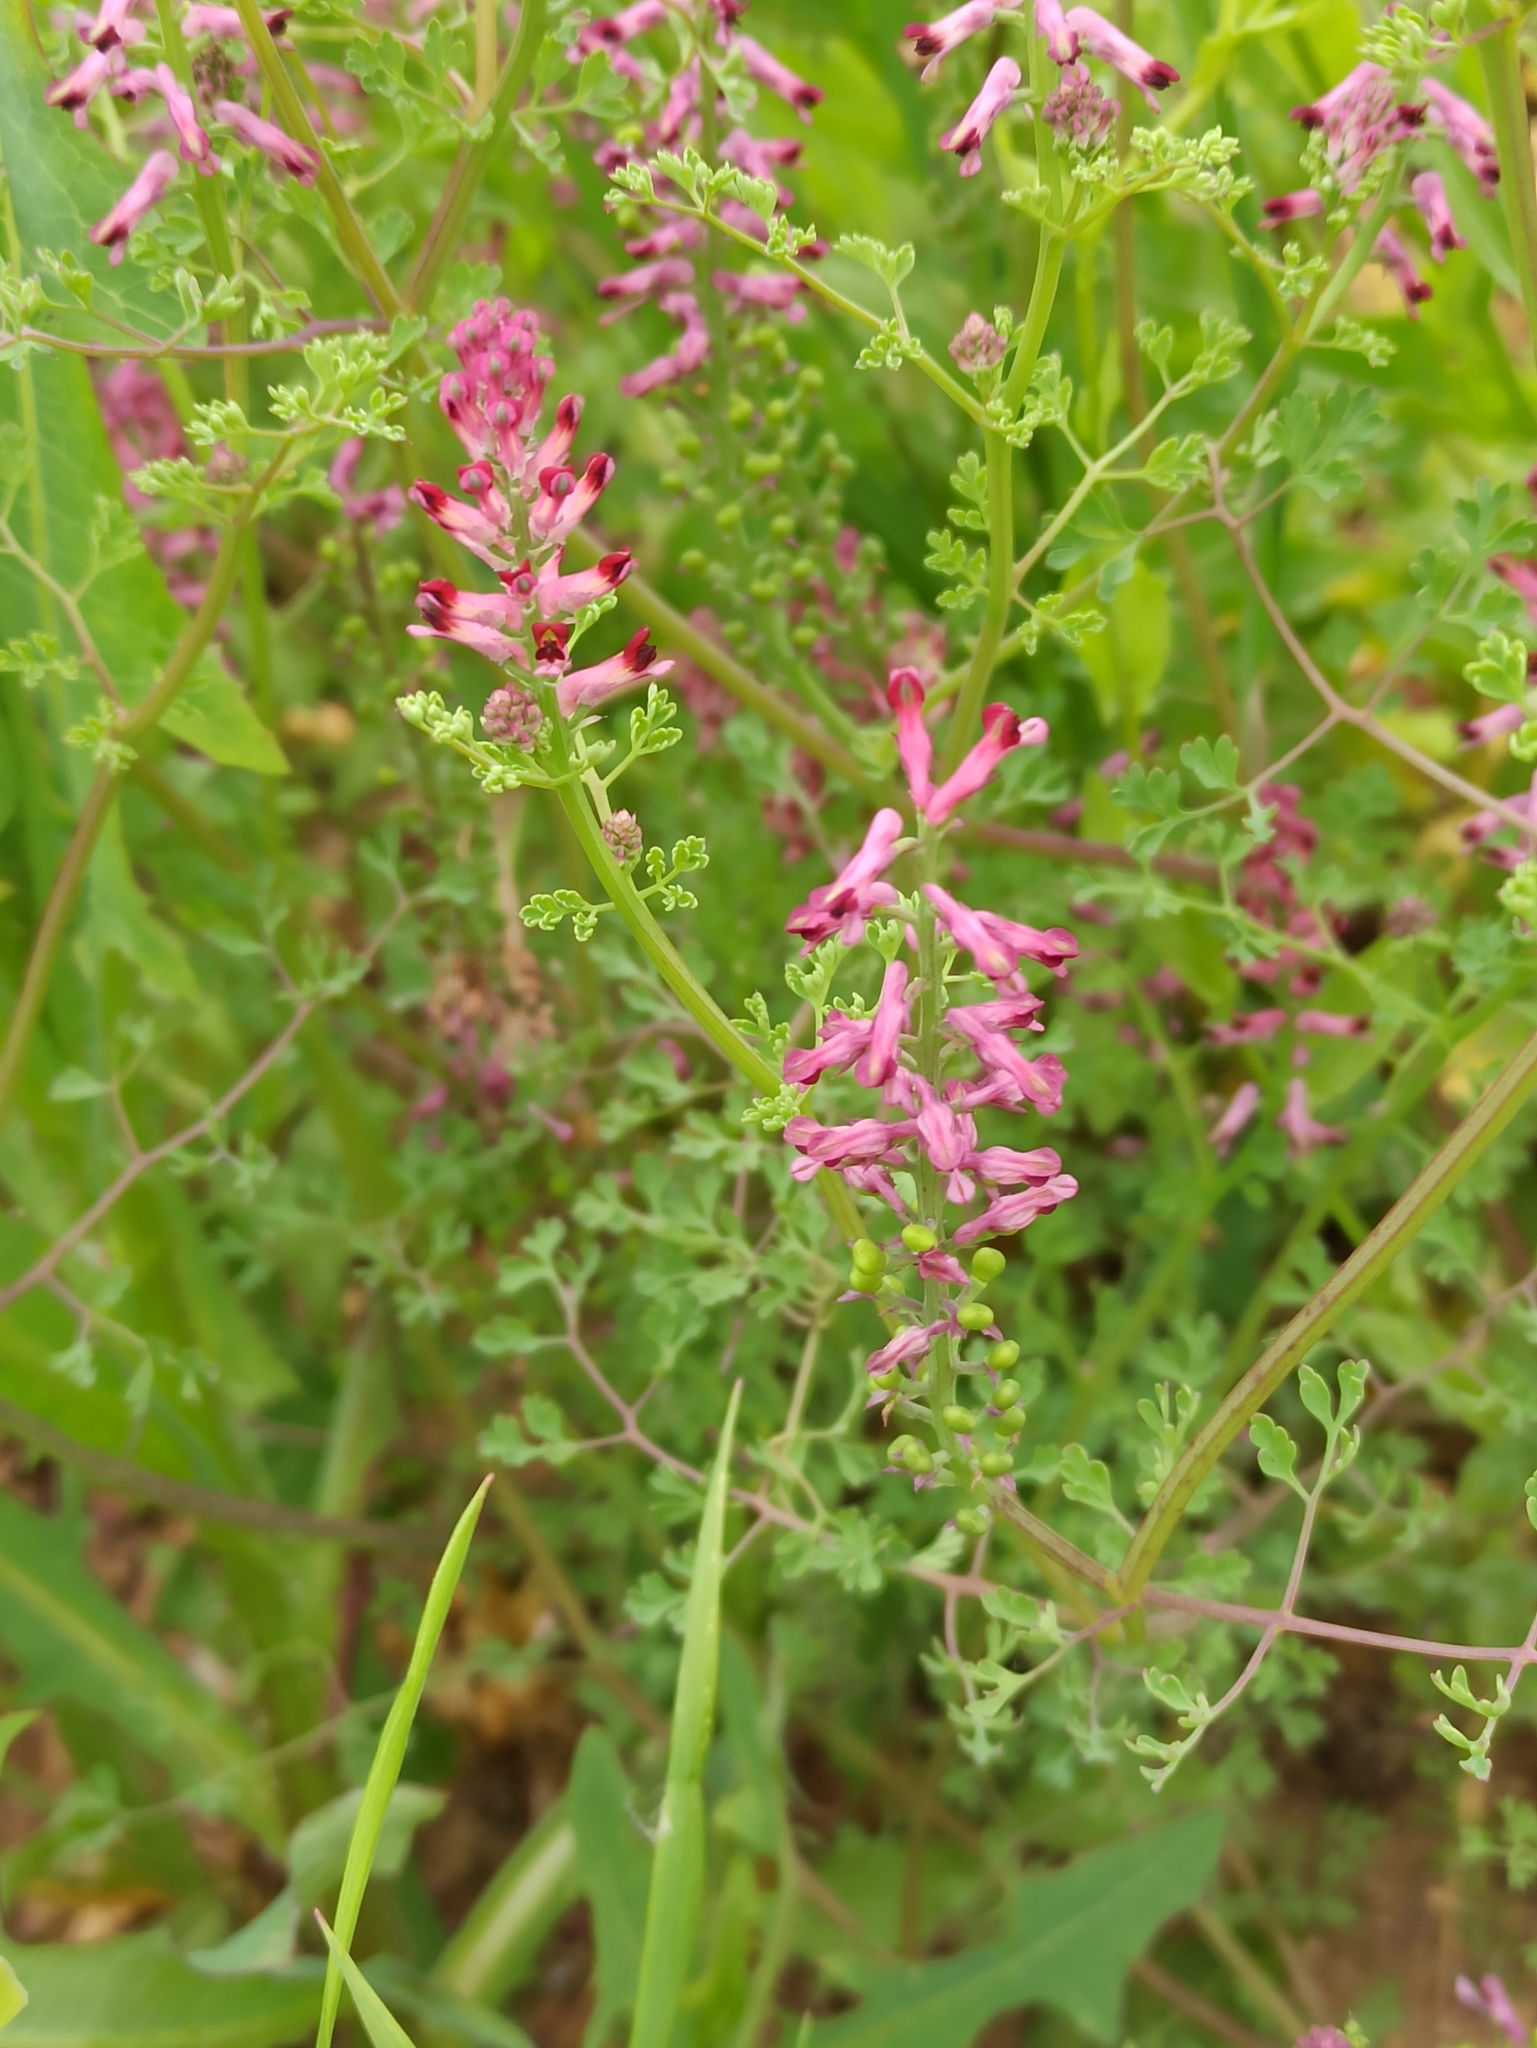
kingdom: Plantae
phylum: Tracheophyta
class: Magnoliopsida
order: Ranunculales
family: Papaveraceae
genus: Fumaria
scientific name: Fumaria officinalis
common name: Common fumitory
